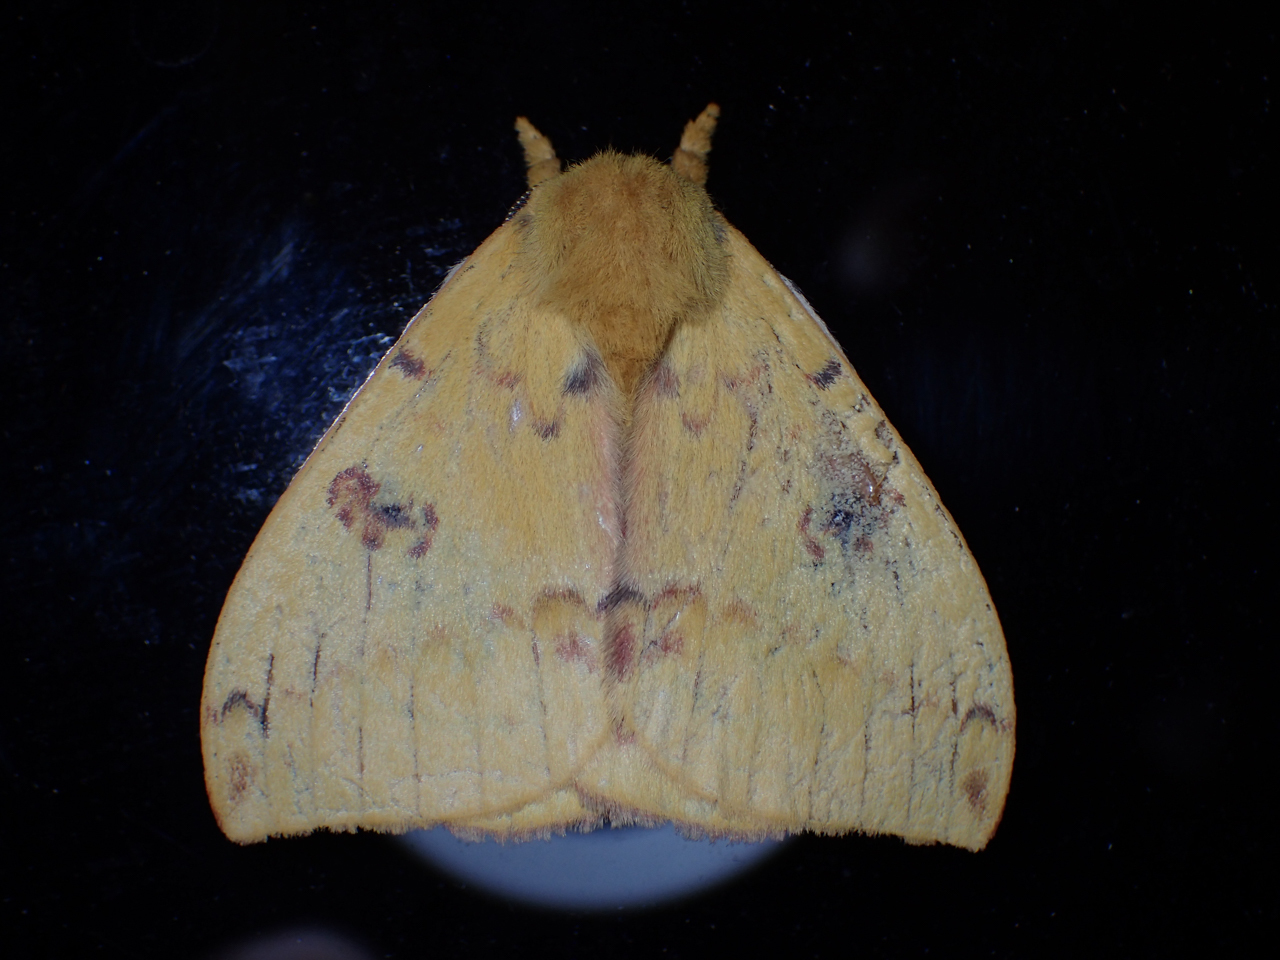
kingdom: Animalia
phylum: Arthropoda
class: Insecta
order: Lepidoptera
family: Saturniidae
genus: Automeris
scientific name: Automeris io
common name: Io moth
